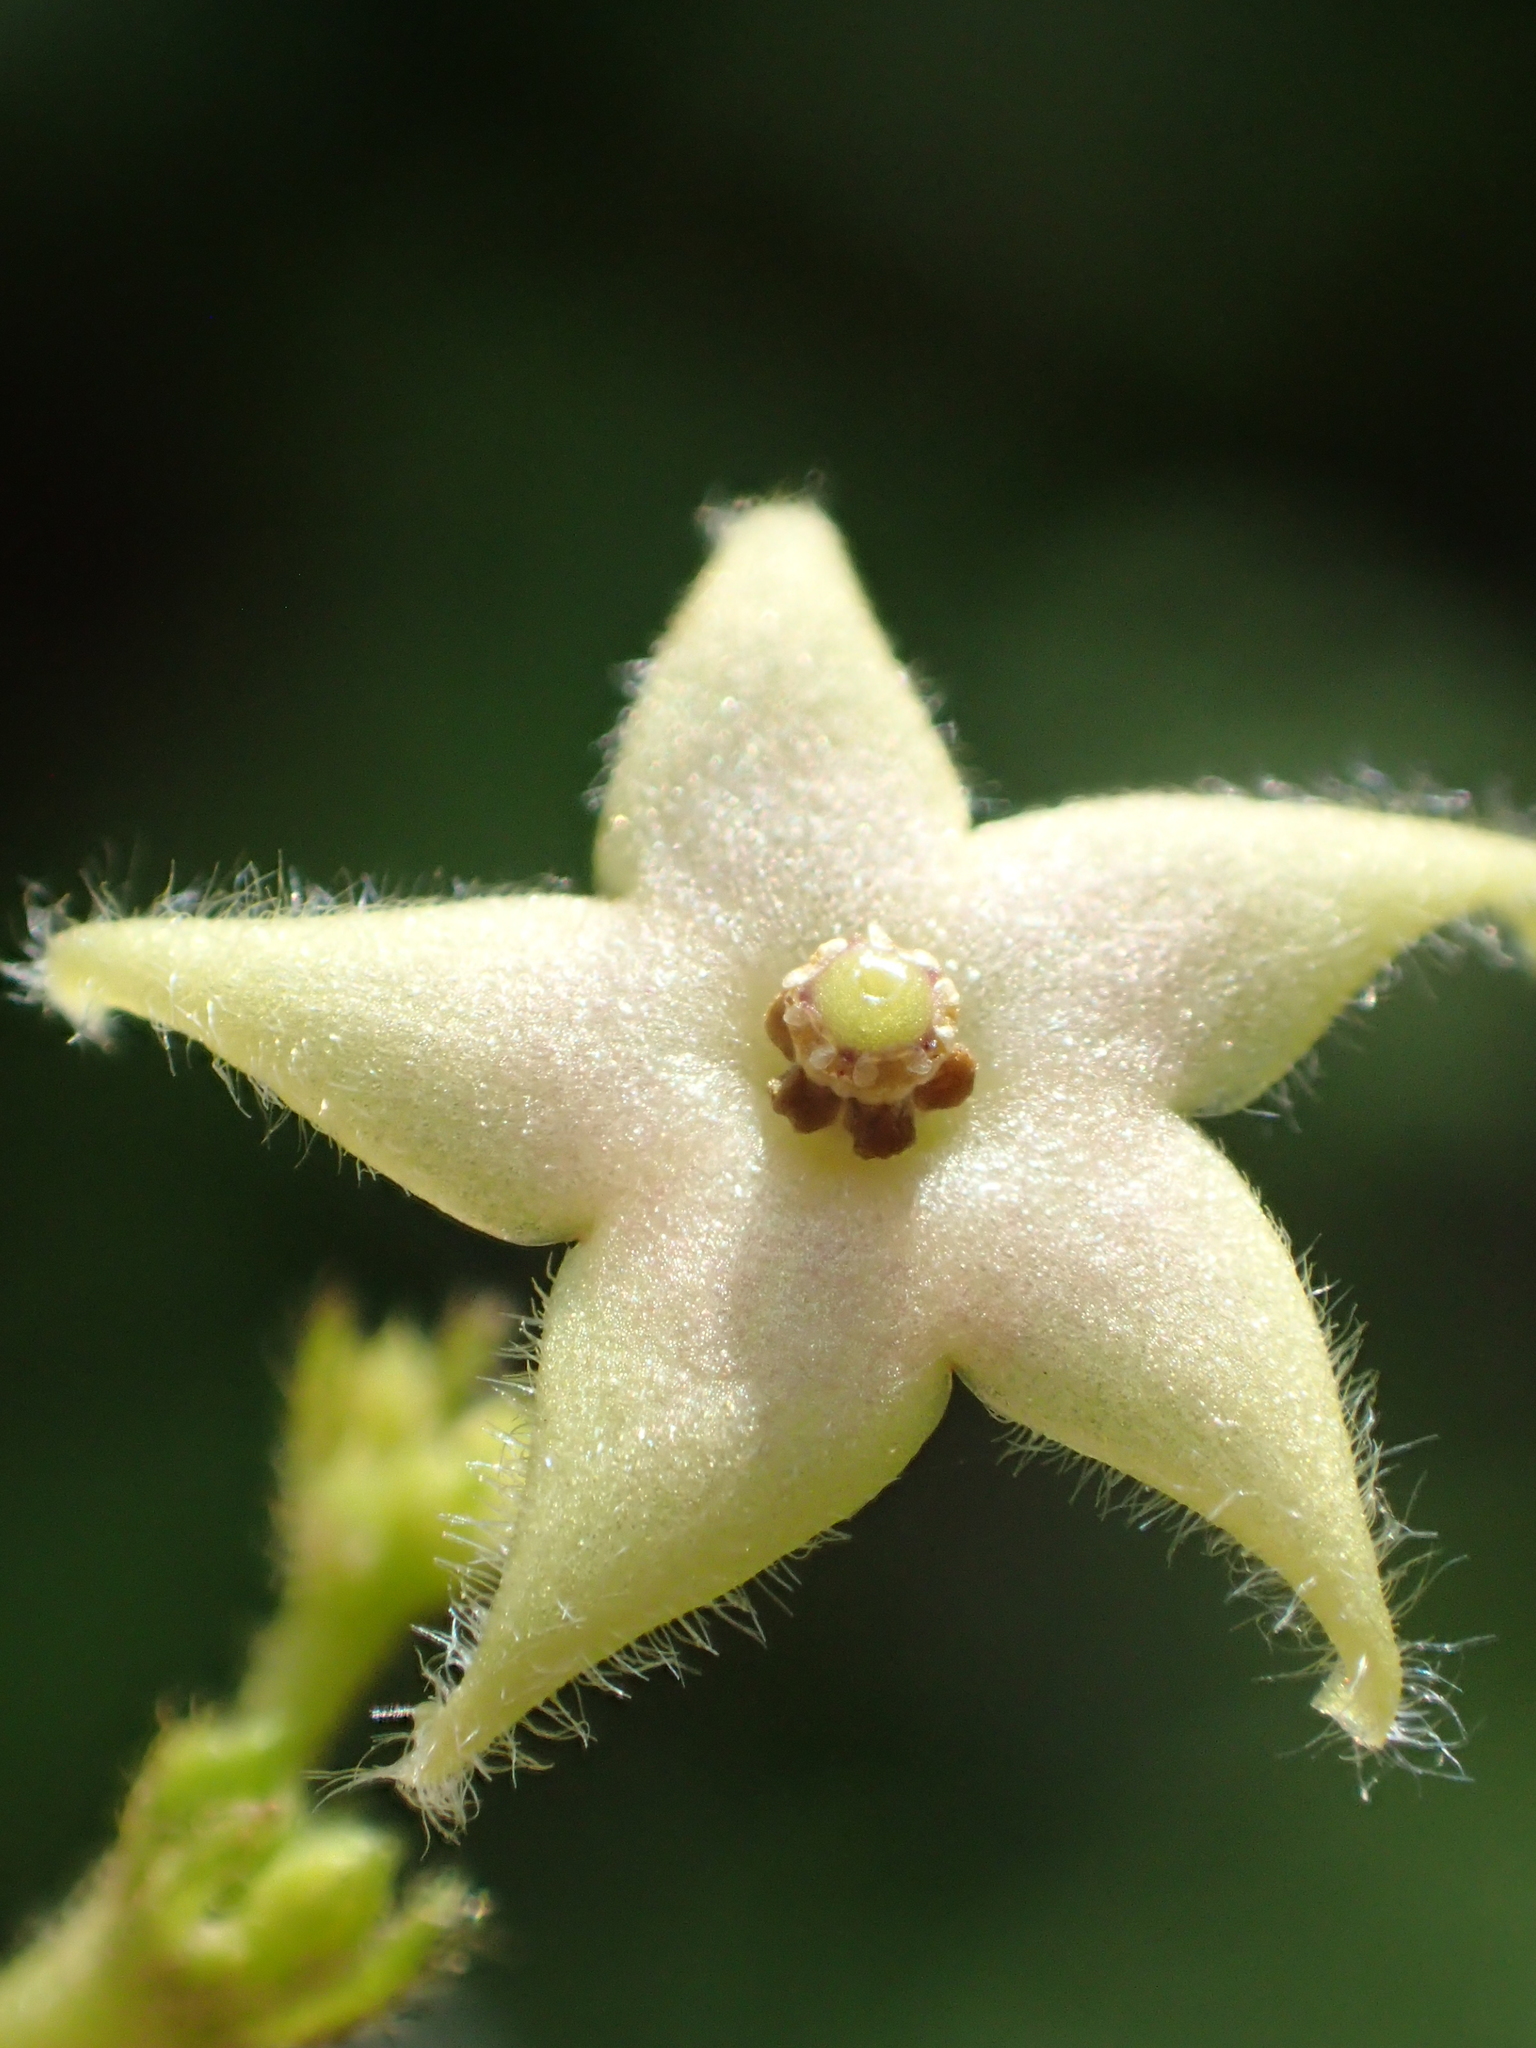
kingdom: Plantae
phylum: Tracheophyta
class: Magnoliopsida
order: Gentianales
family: Apocynaceae
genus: Vincetoxicum
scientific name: Vincetoxicum hirsutum
